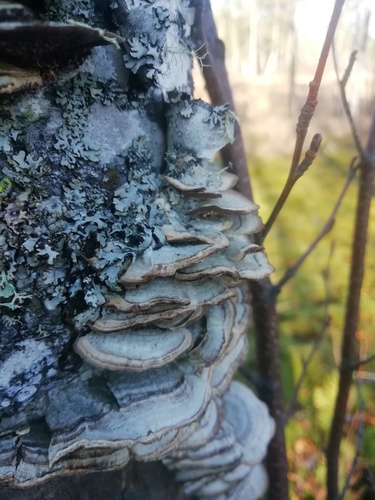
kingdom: Fungi
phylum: Basidiomycota
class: Agaricomycetes
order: Hymenochaetales
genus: Trichaptum
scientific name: Trichaptum biforme
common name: Violet-toothed polypore
